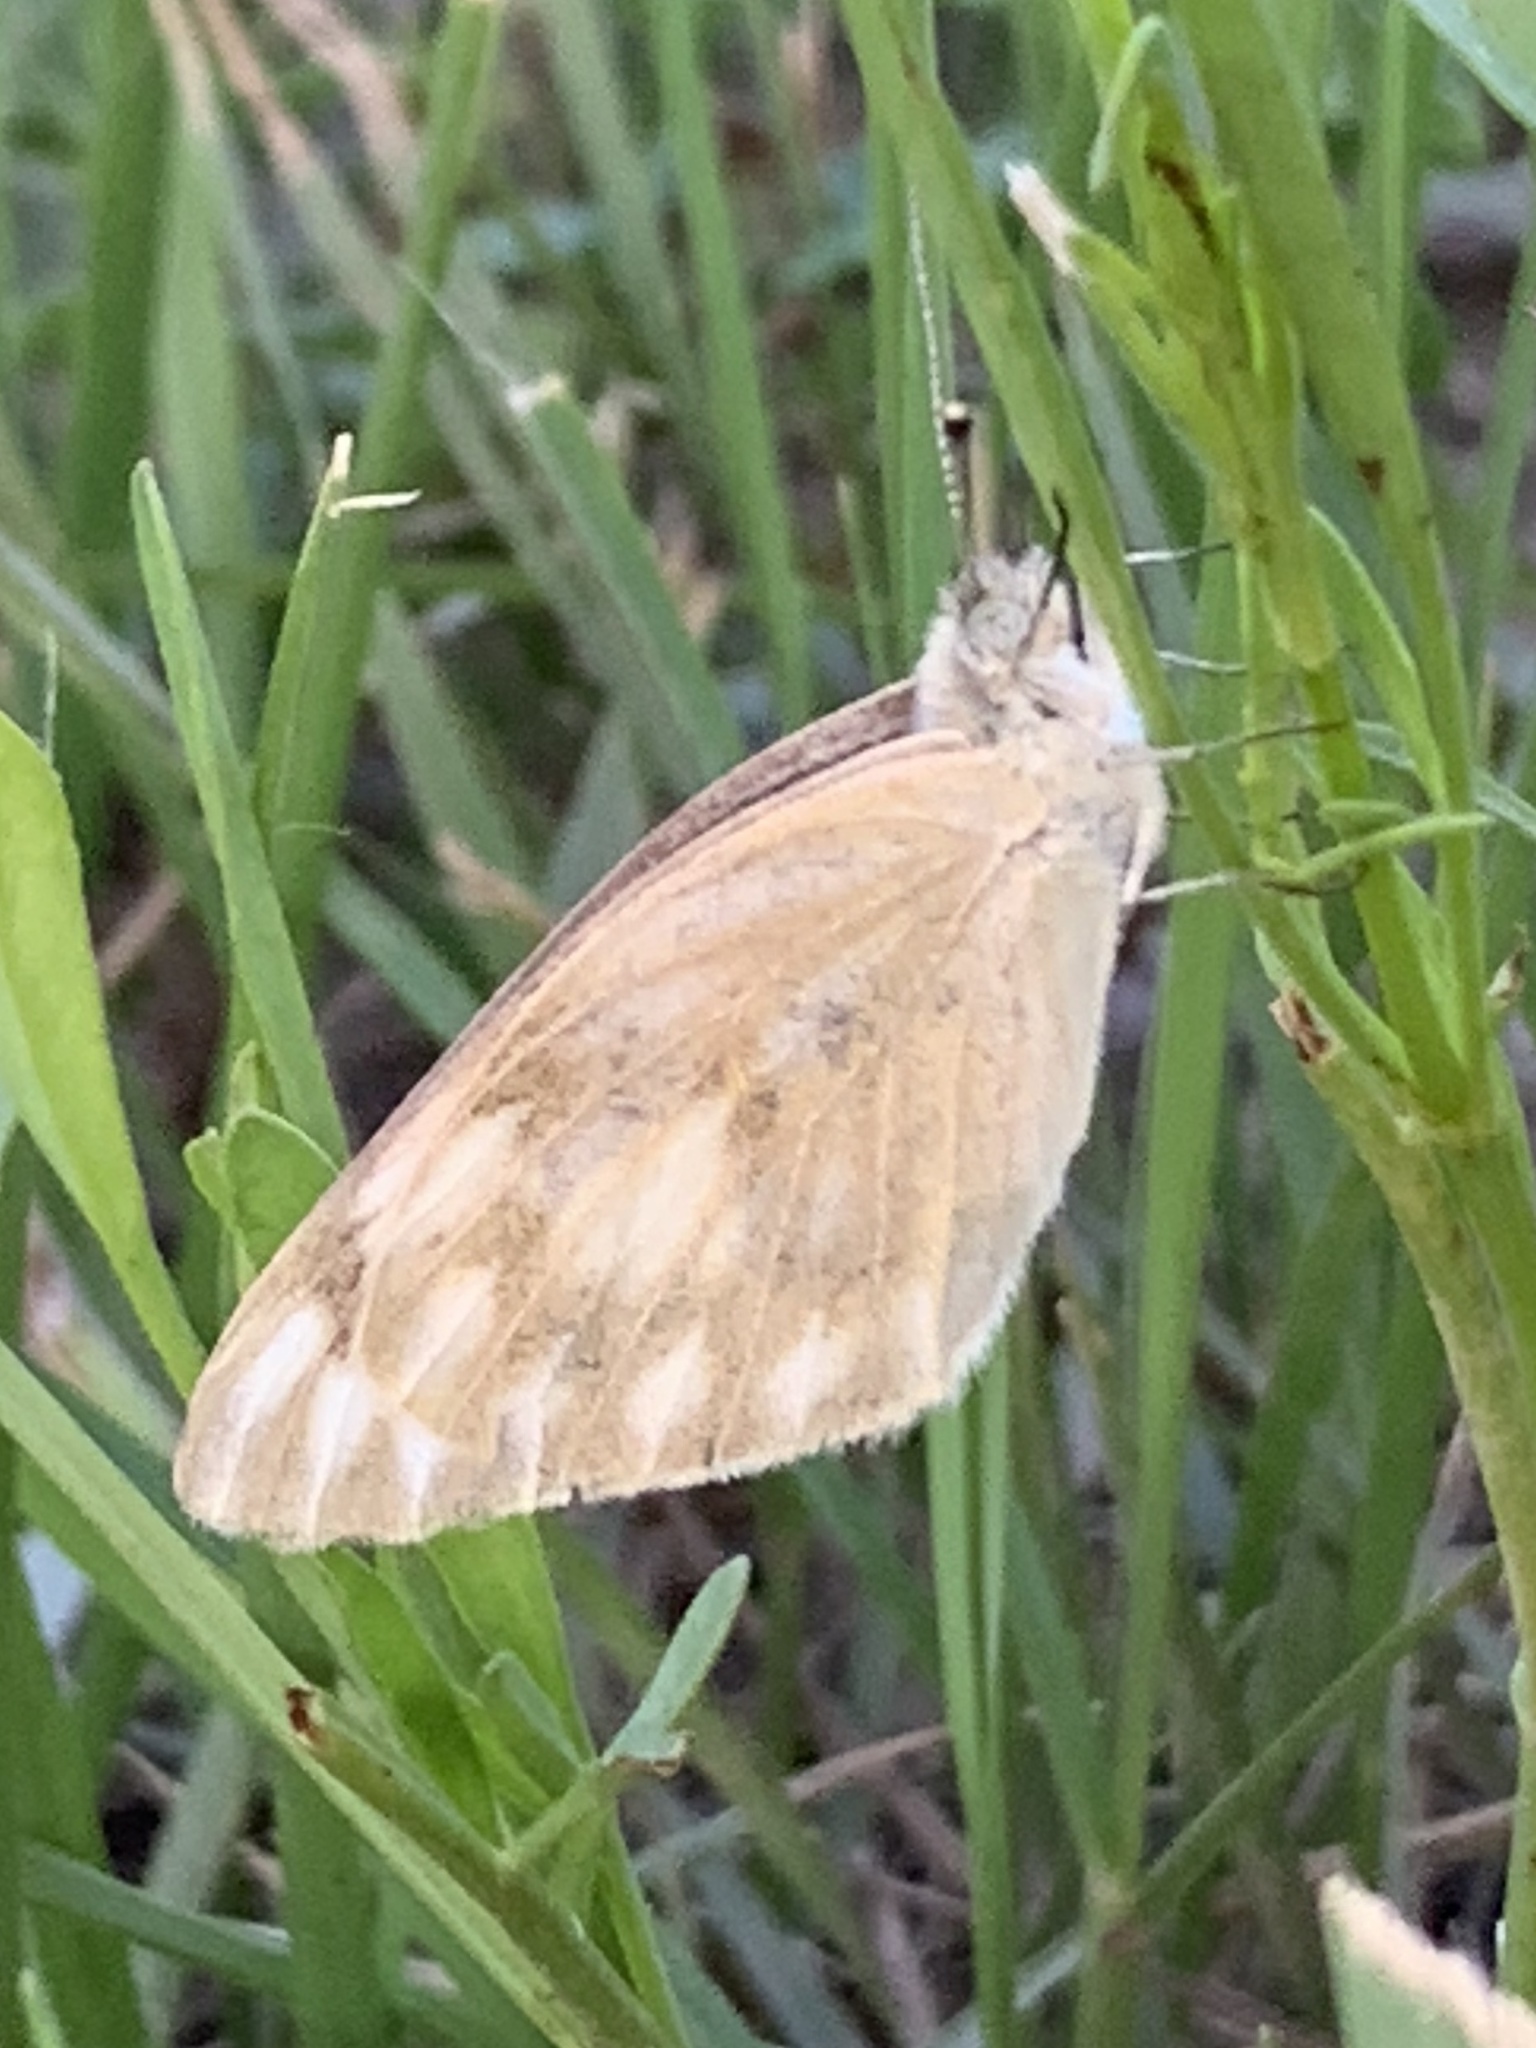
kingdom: Animalia
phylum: Arthropoda
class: Insecta
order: Lepidoptera
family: Pieridae
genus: Pontia
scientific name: Pontia protodice
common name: Checkered white
